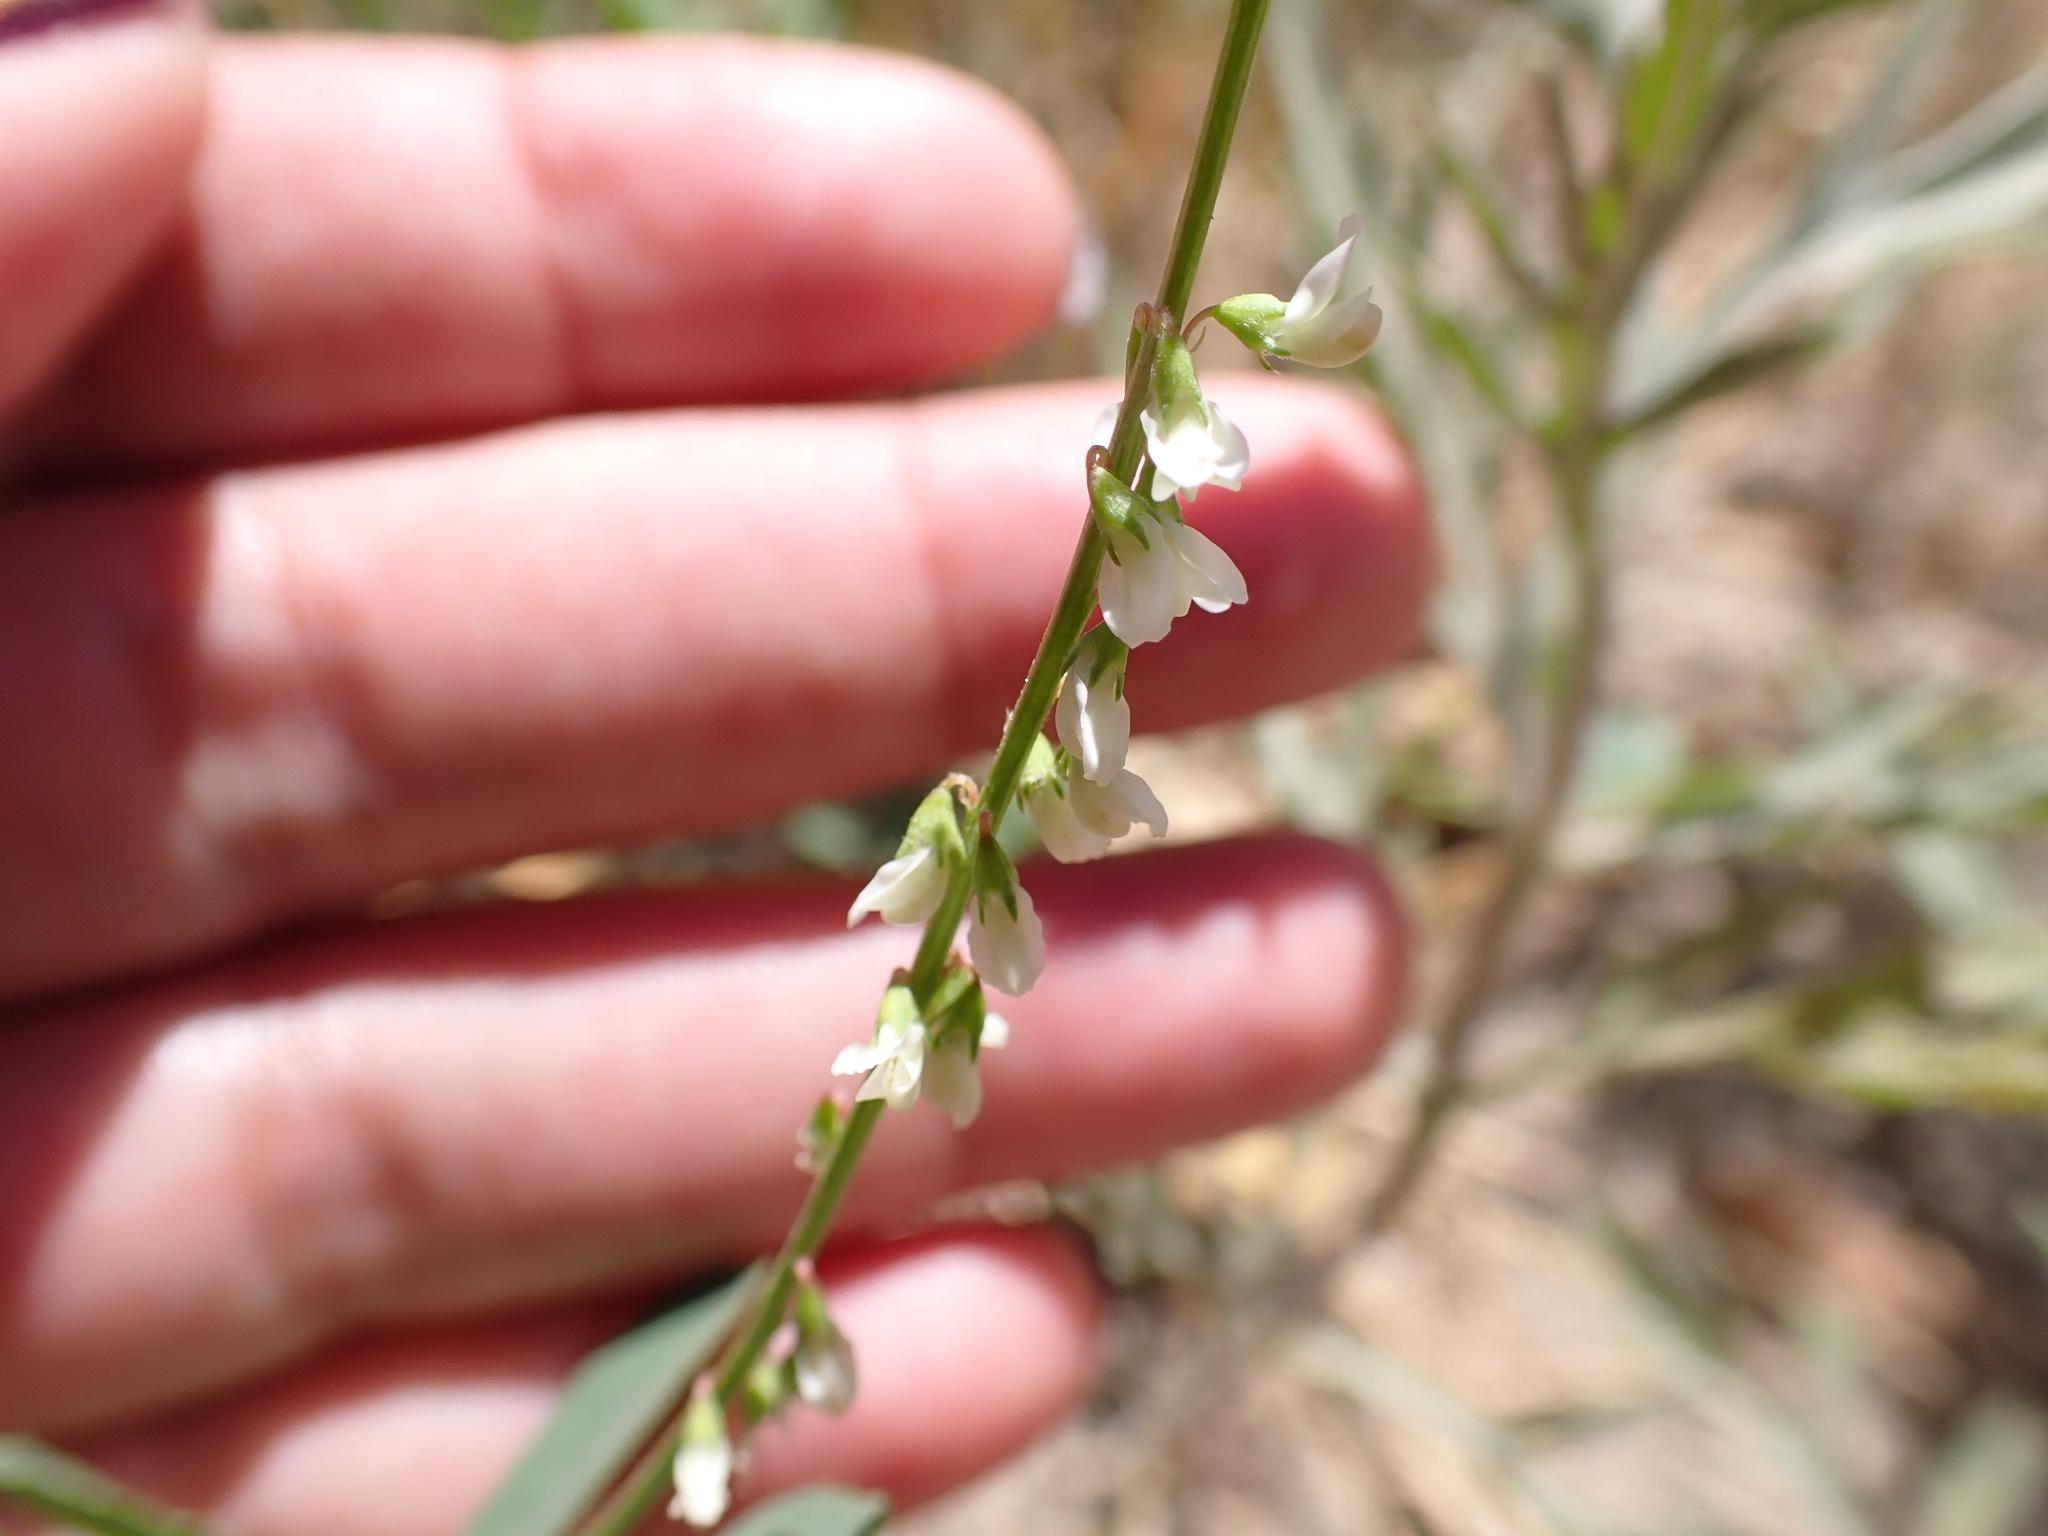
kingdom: Plantae
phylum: Tracheophyta
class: Magnoliopsida
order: Fabales
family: Fabaceae
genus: Melilotus
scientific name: Melilotus albus
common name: White melilot
